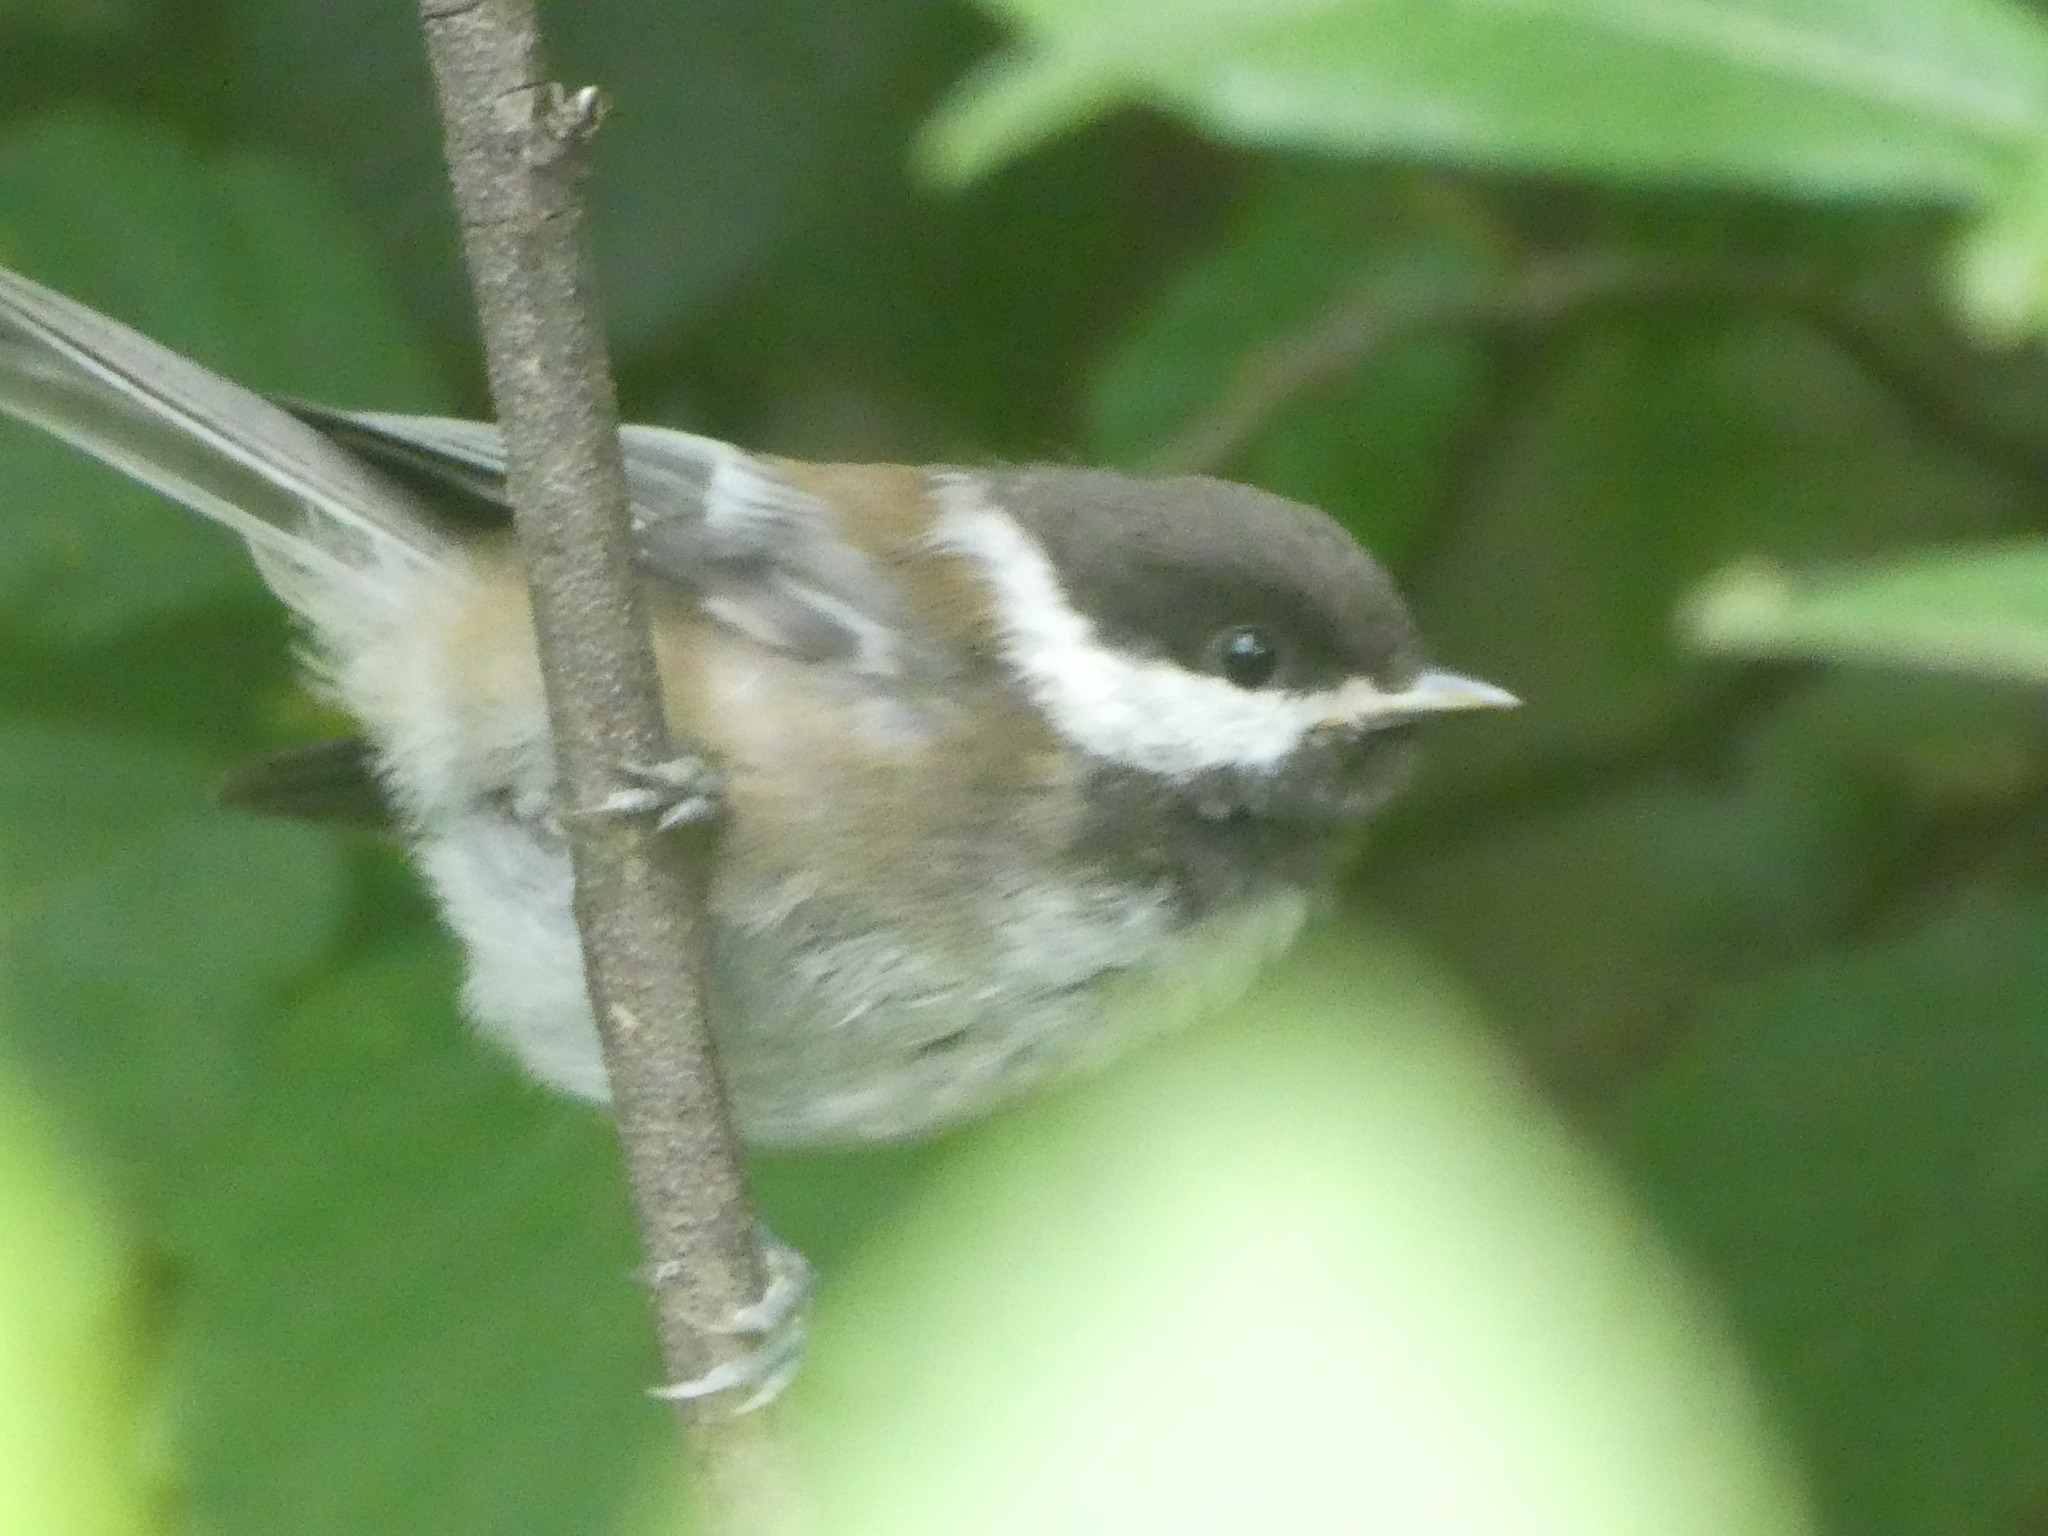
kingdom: Animalia
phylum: Chordata
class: Aves
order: Passeriformes
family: Paridae
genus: Poecile
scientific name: Poecile rufescens
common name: Chestnut-backed chickadee
